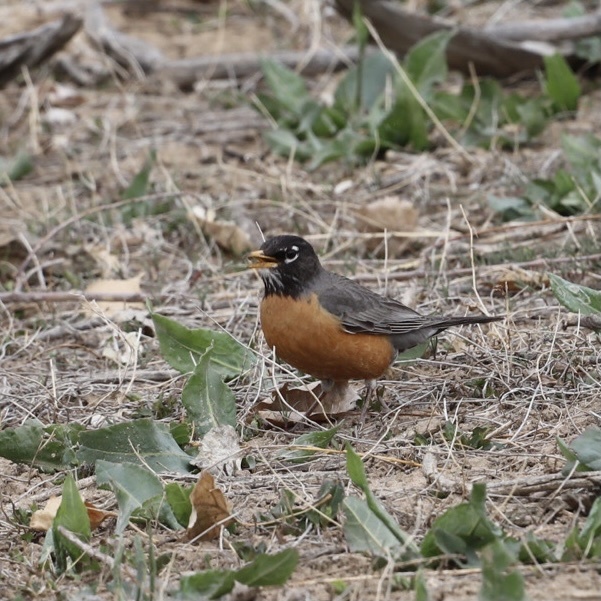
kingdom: Animalia
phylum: Chordata
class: Aves
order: Passeriformes
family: Turdidae
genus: Turdus
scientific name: Turdus migratorius
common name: American robin
